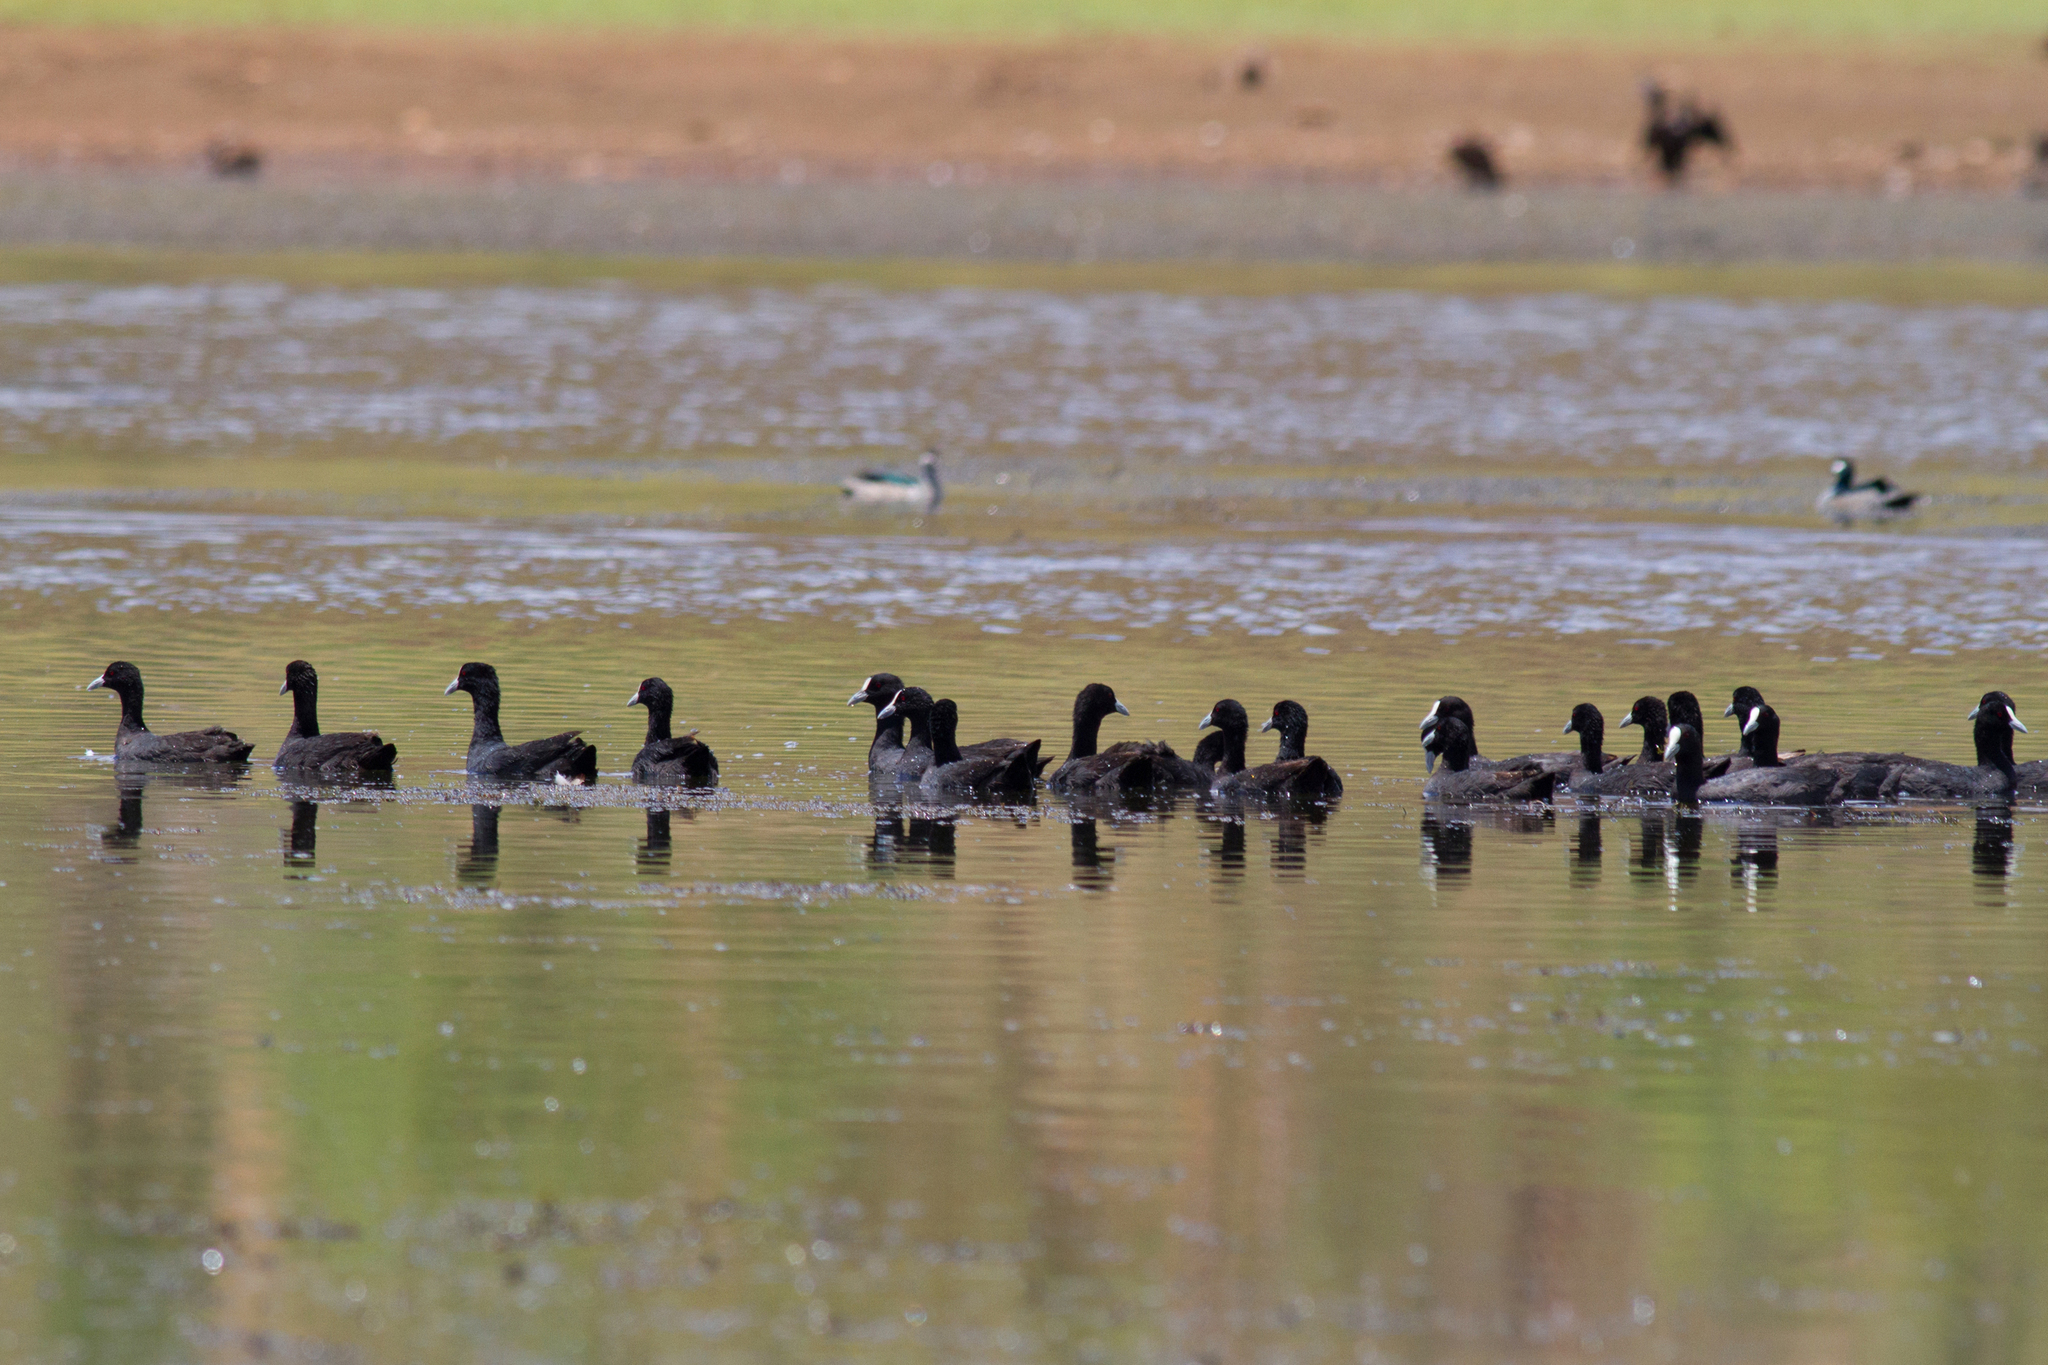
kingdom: Animalia
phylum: Chordata
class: Aves
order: Gruiformes
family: Rallidae
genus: Fulica
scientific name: Fulica atra
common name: Eurasian coot
